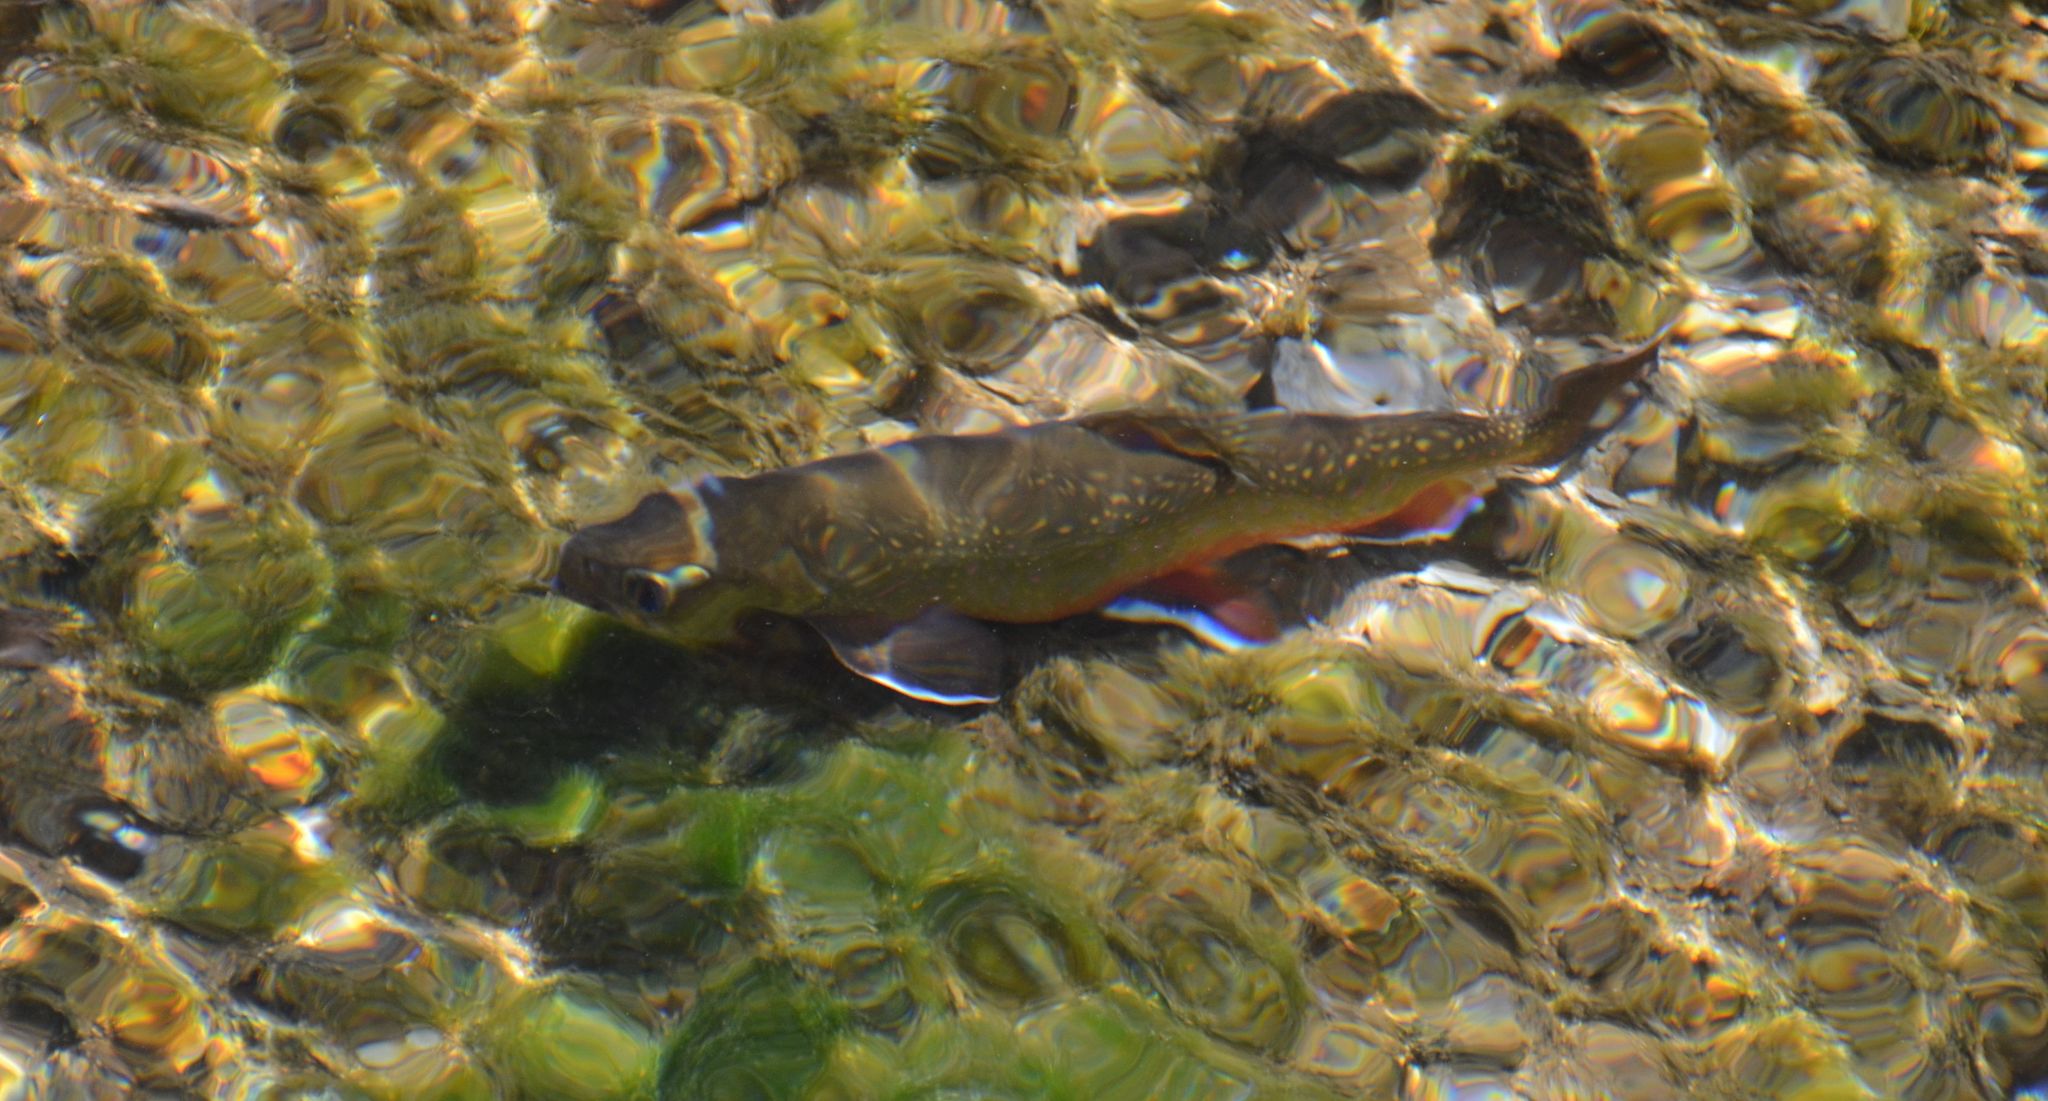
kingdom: Animalia
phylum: Chordata
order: Salmoniformes
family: Salmonidae
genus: Salvelinus
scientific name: Salvelinus fontinalis
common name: Brook trout
